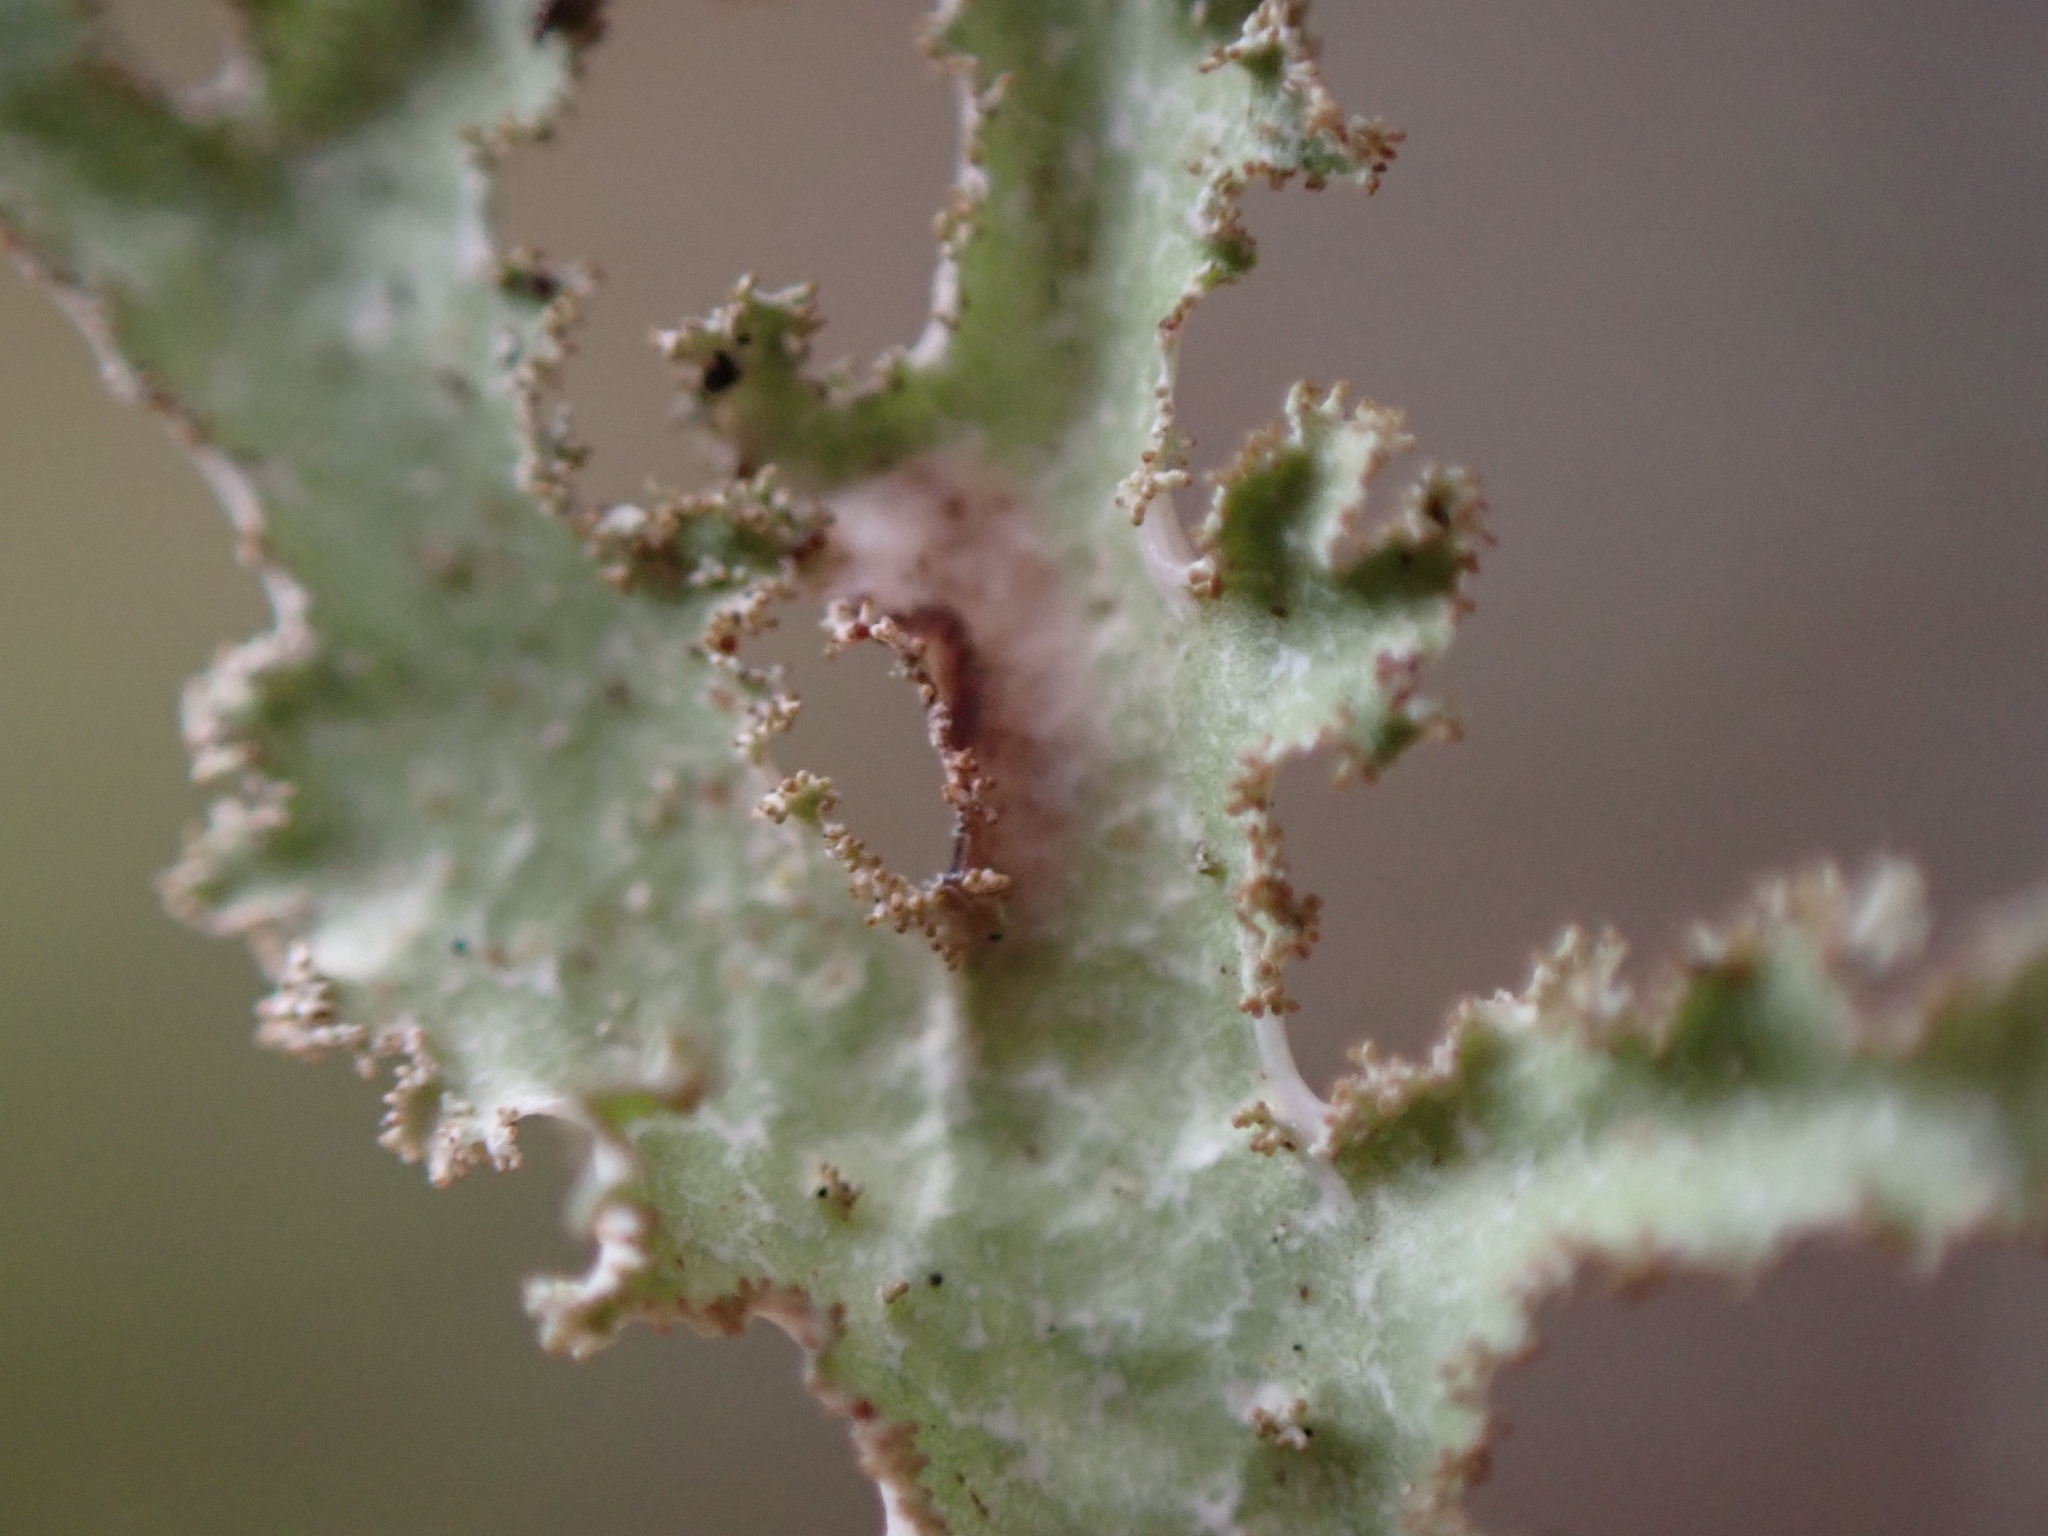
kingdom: Fungi
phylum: Ascomycota
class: Lecanoromycetes
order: Lecanorales
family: Parmeliaceae
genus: Platismatia
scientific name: Platismatia herrei
